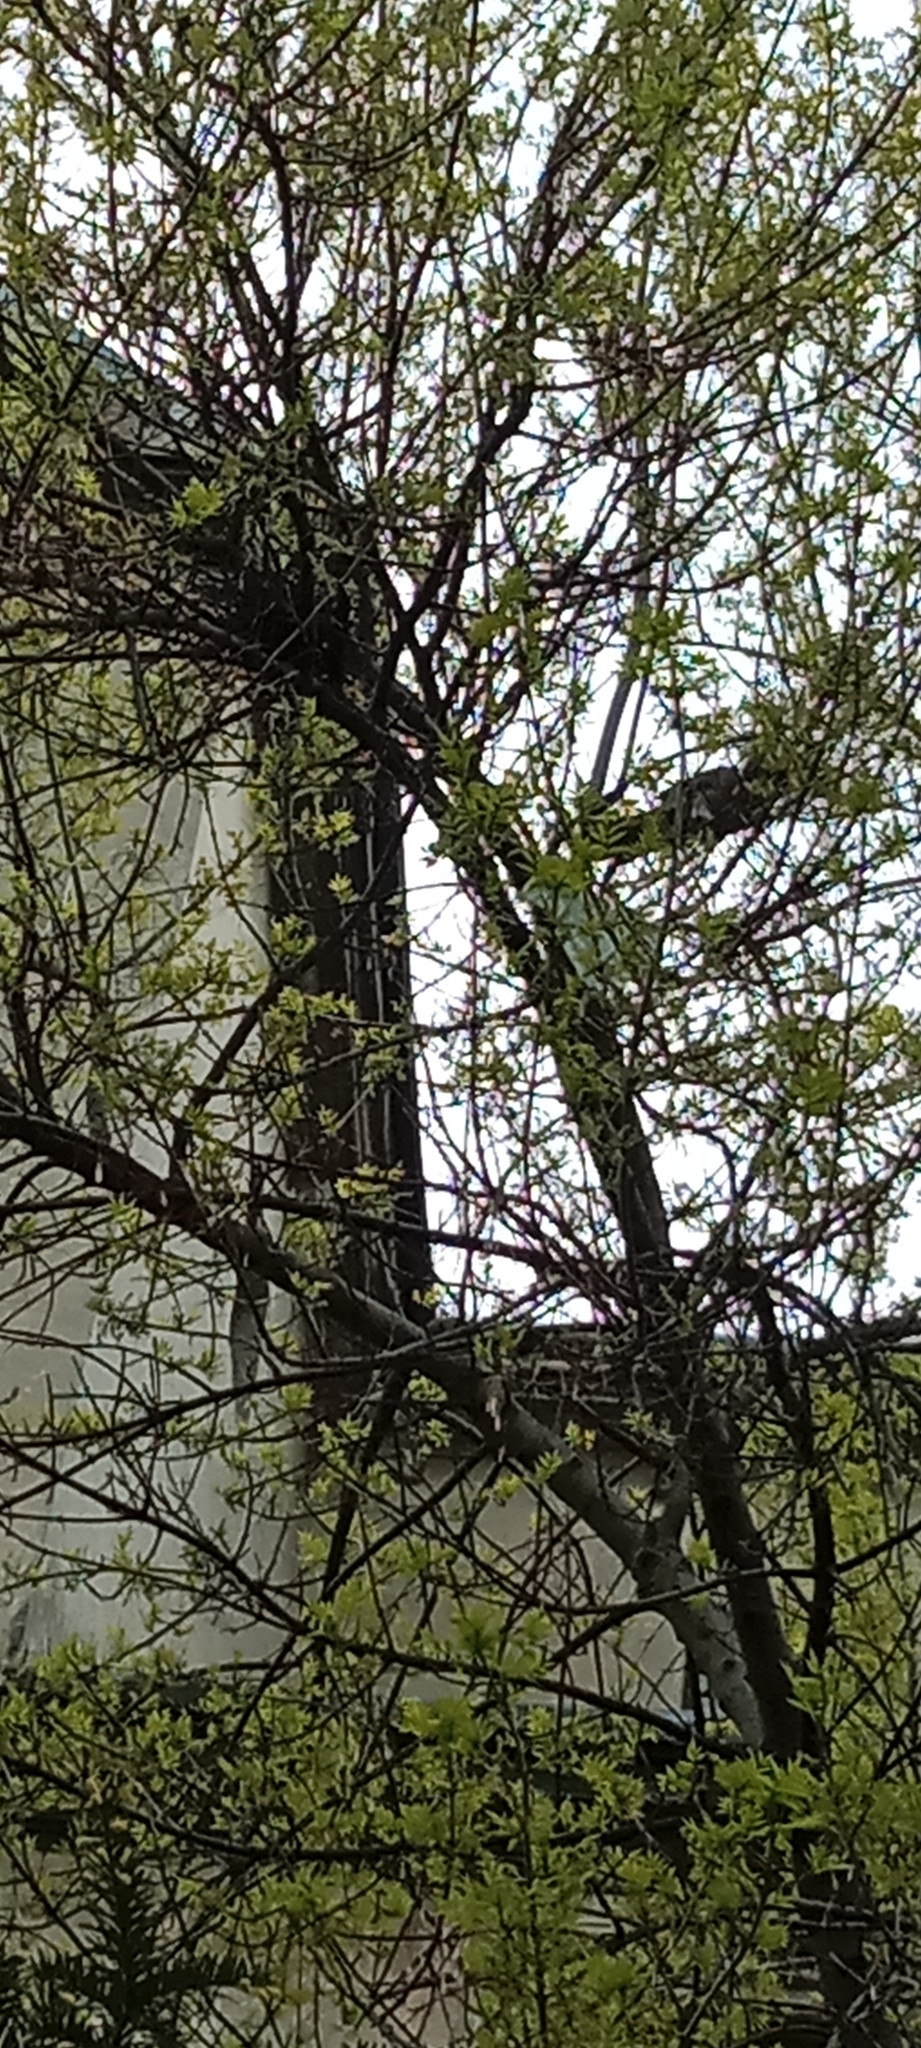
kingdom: Animalia
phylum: Chordata
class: Aves
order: Columbiformes
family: Columbidae
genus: Columba
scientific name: Columba palumbus
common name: Common wood pigeon
